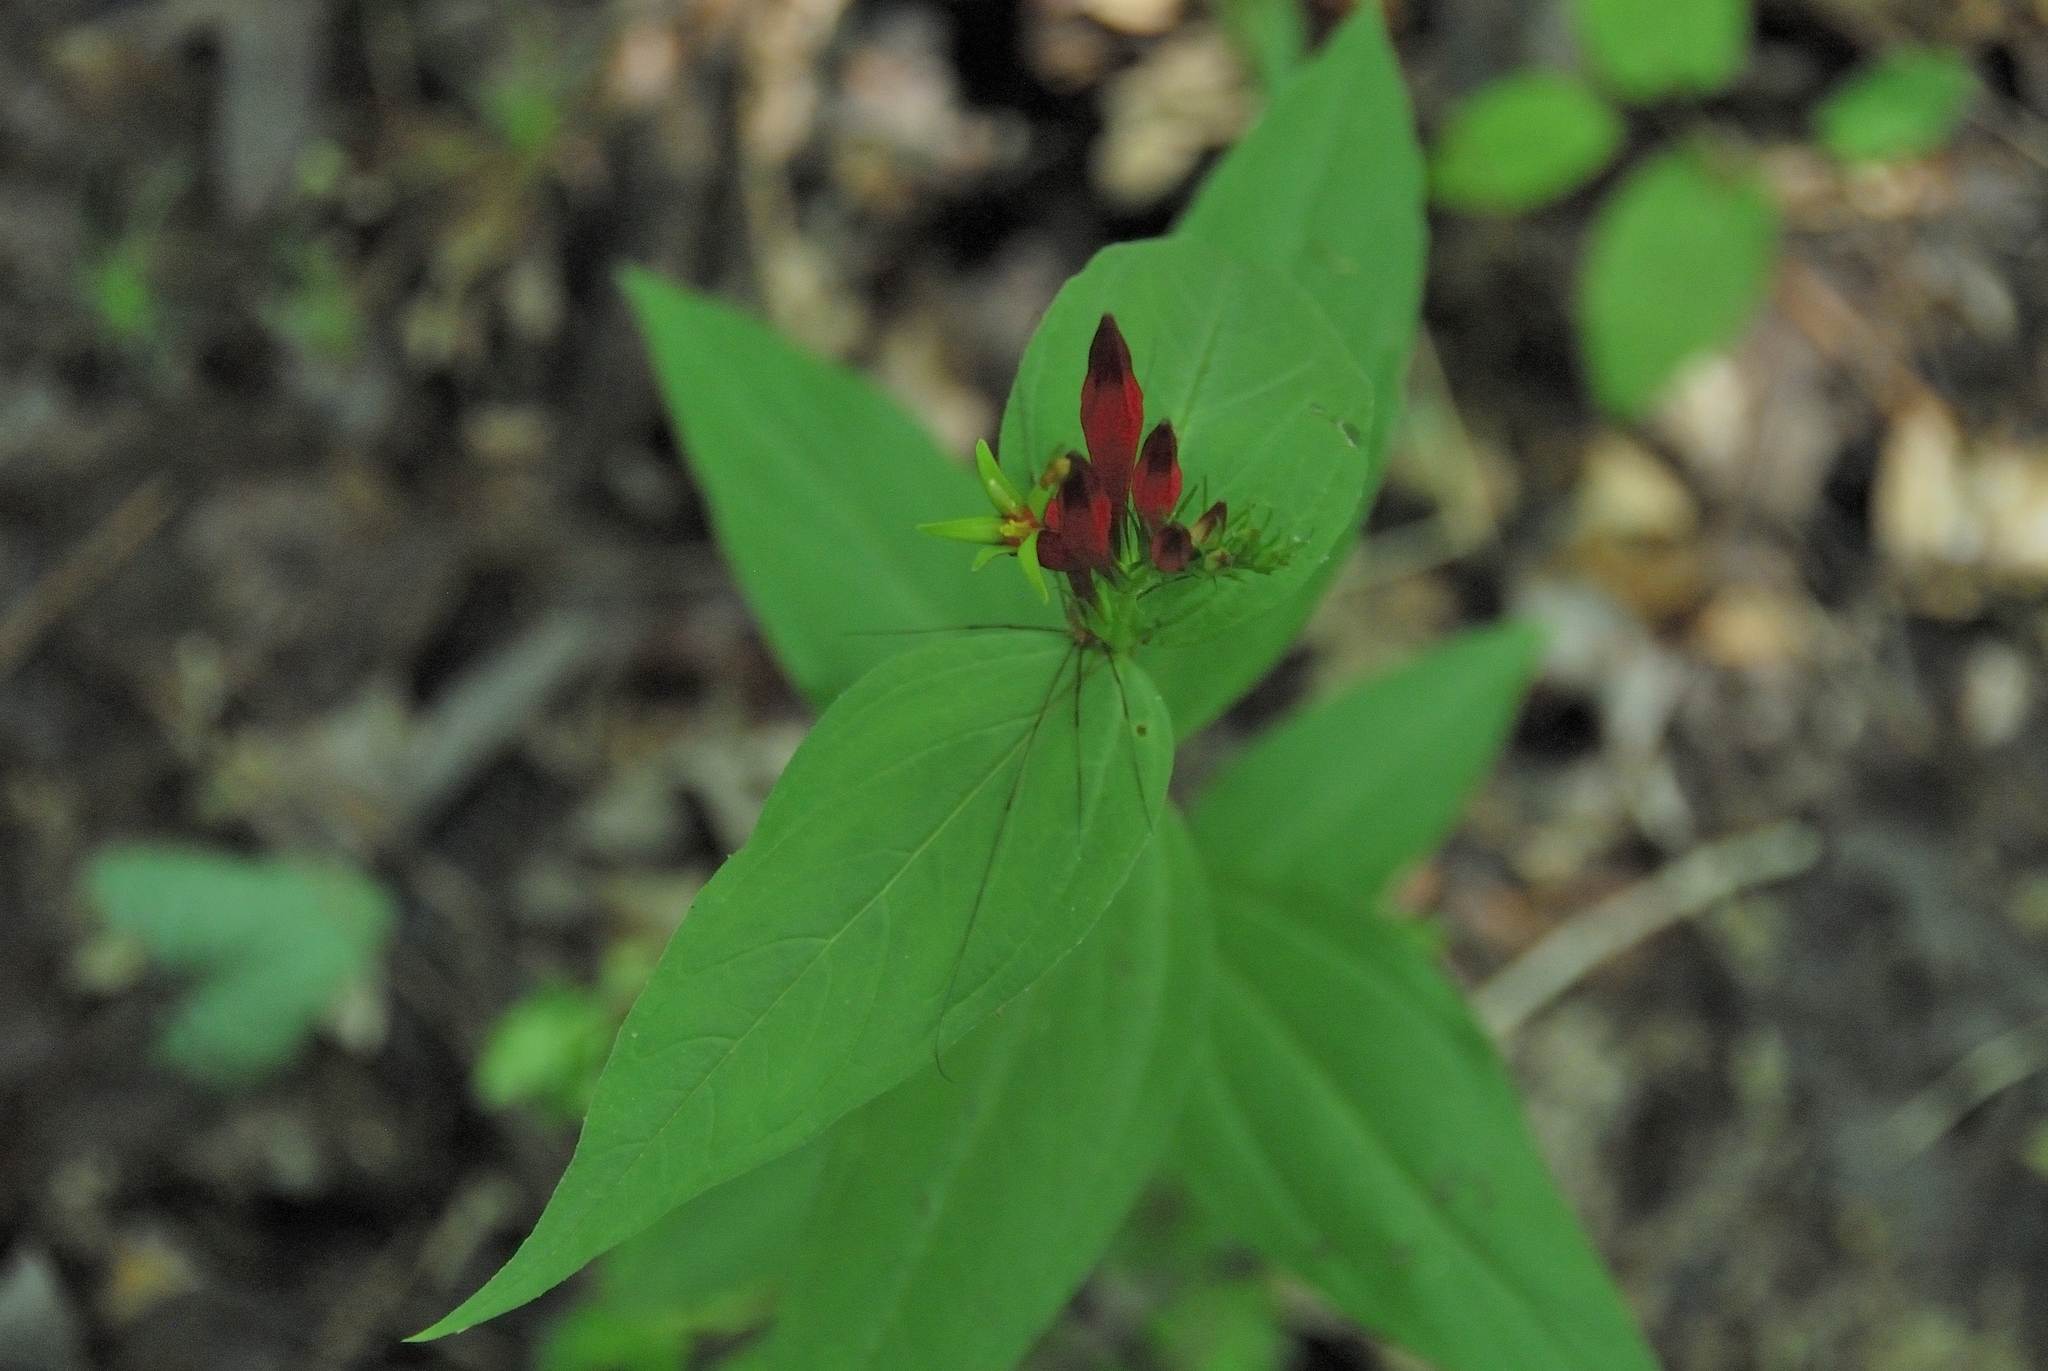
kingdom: Plantae
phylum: Tracheophyta
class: Magnoliopsida
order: Gentianales
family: Loganiaceae
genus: Spigelia
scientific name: Spigelia marilandica
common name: Indian-pink
